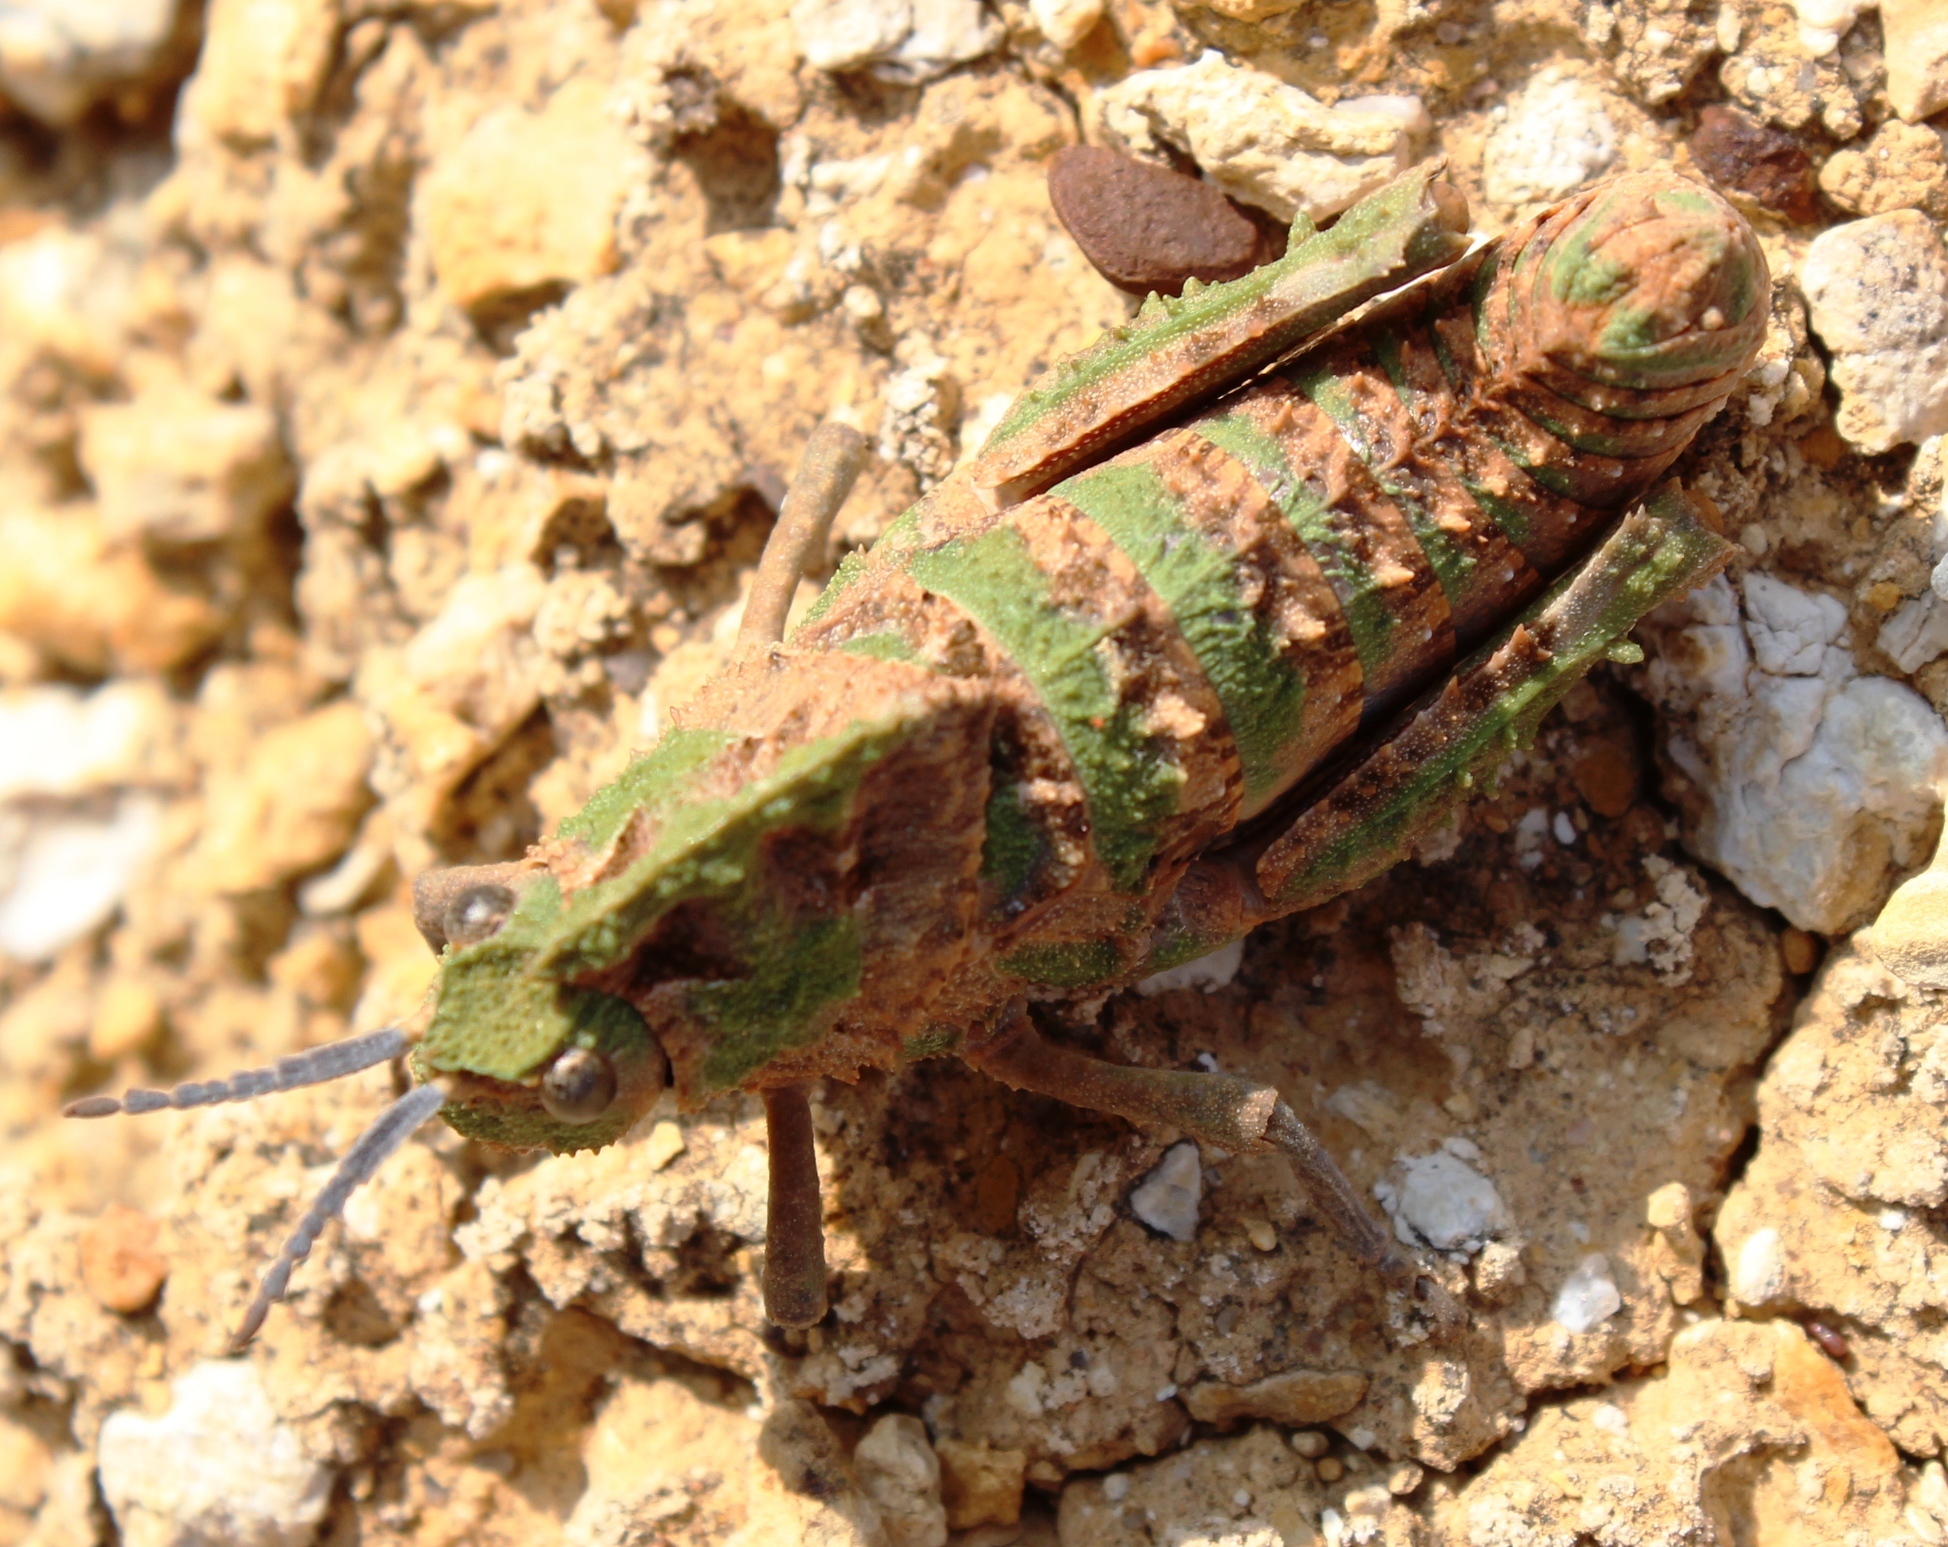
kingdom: Animalia
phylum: Arthropoda
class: Insecta
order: Orthoptera
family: Pamphagidae
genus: Porthetis
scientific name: Porthetis carinata
